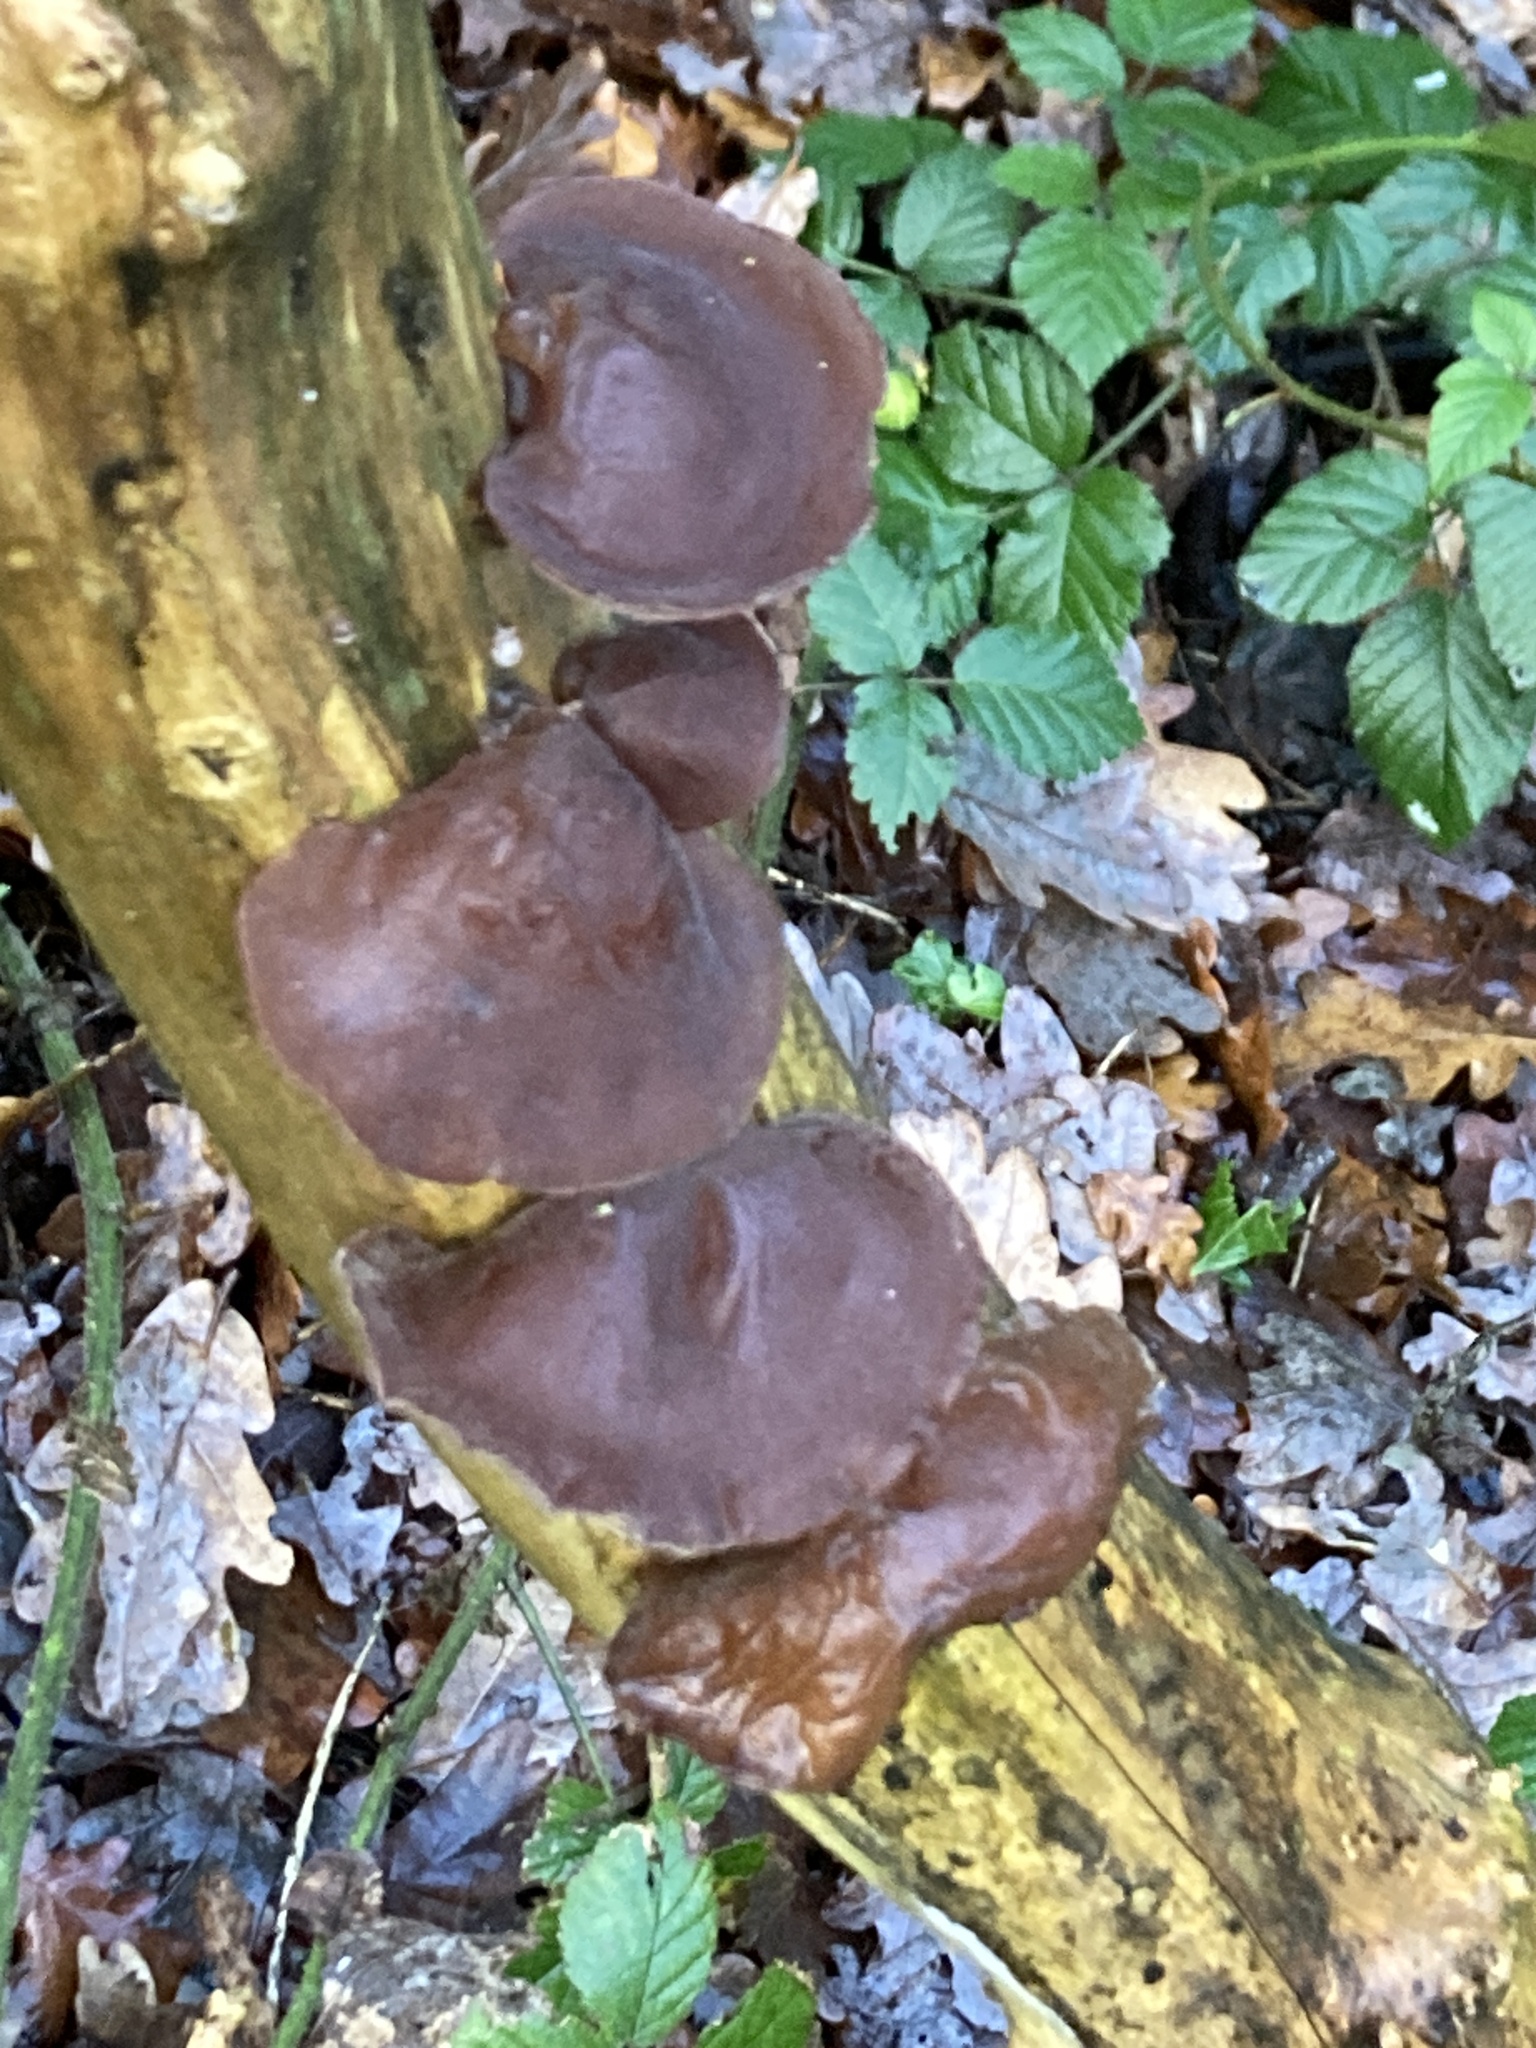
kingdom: Fungi
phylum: Basidiomycota
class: Agaricomycetes
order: Auriculariales
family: Auriculariaceae
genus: Auricularia
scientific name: Auricularia auricula-judae
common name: Jelly ear
